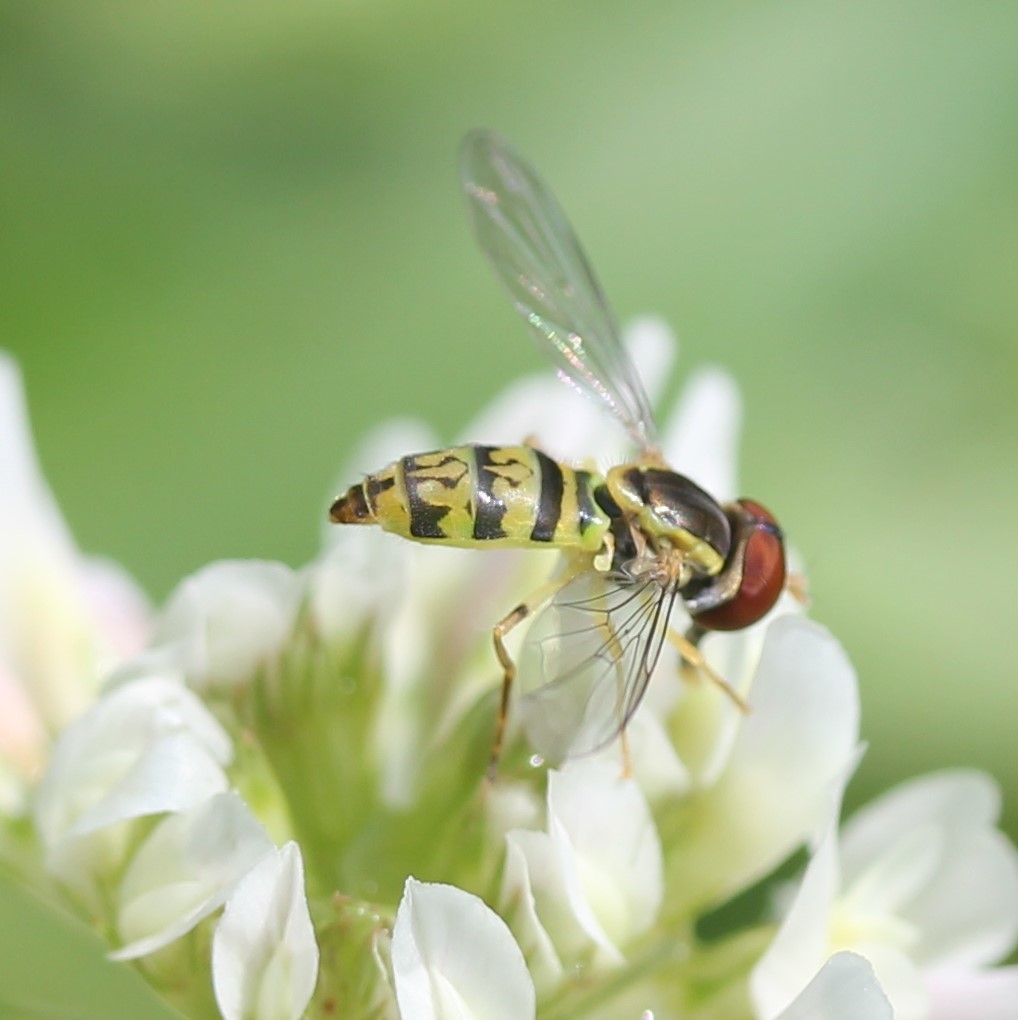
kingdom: Animalia
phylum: Arthropoda
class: Insecta
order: Diptera
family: Syrphidae
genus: Toxomerus
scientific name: Toxomerus geminatus
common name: Eastern calligrapher
